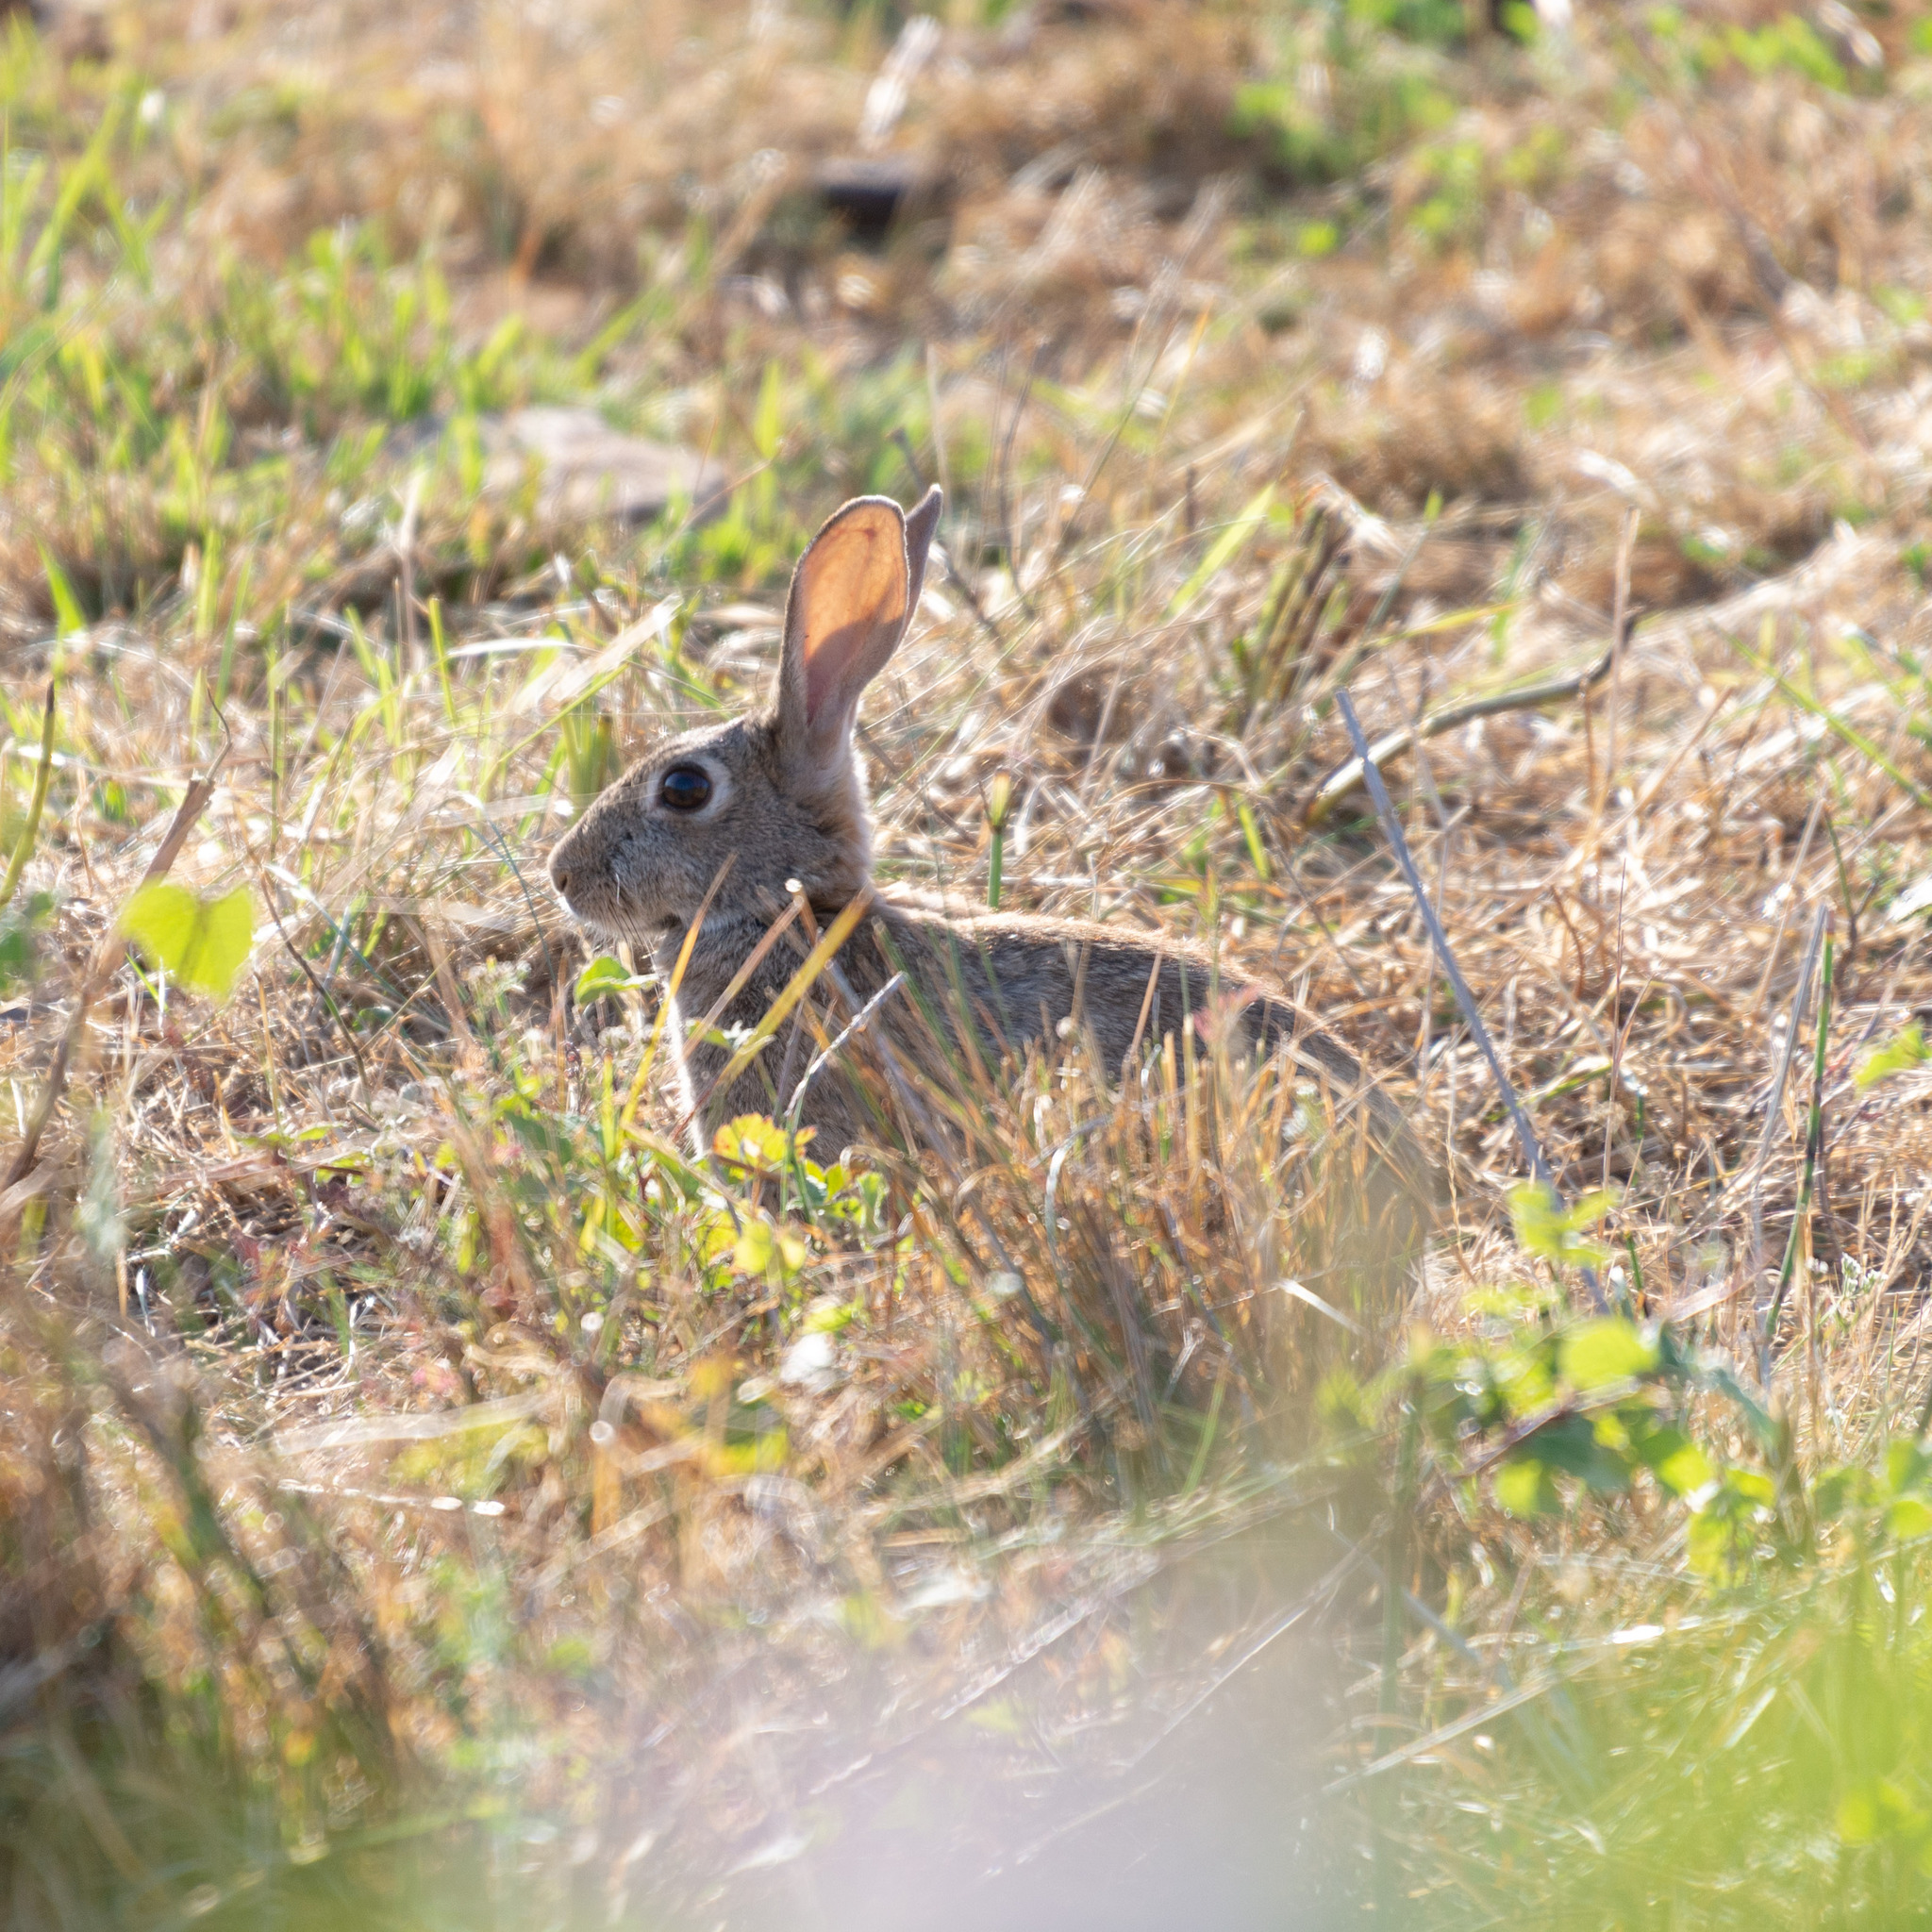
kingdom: Animalia
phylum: Chordata
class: Mammalia
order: Lagomorpha
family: Leporidae
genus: Oryctolagus
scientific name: Oryctolagus cuniculus
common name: European rabbit
